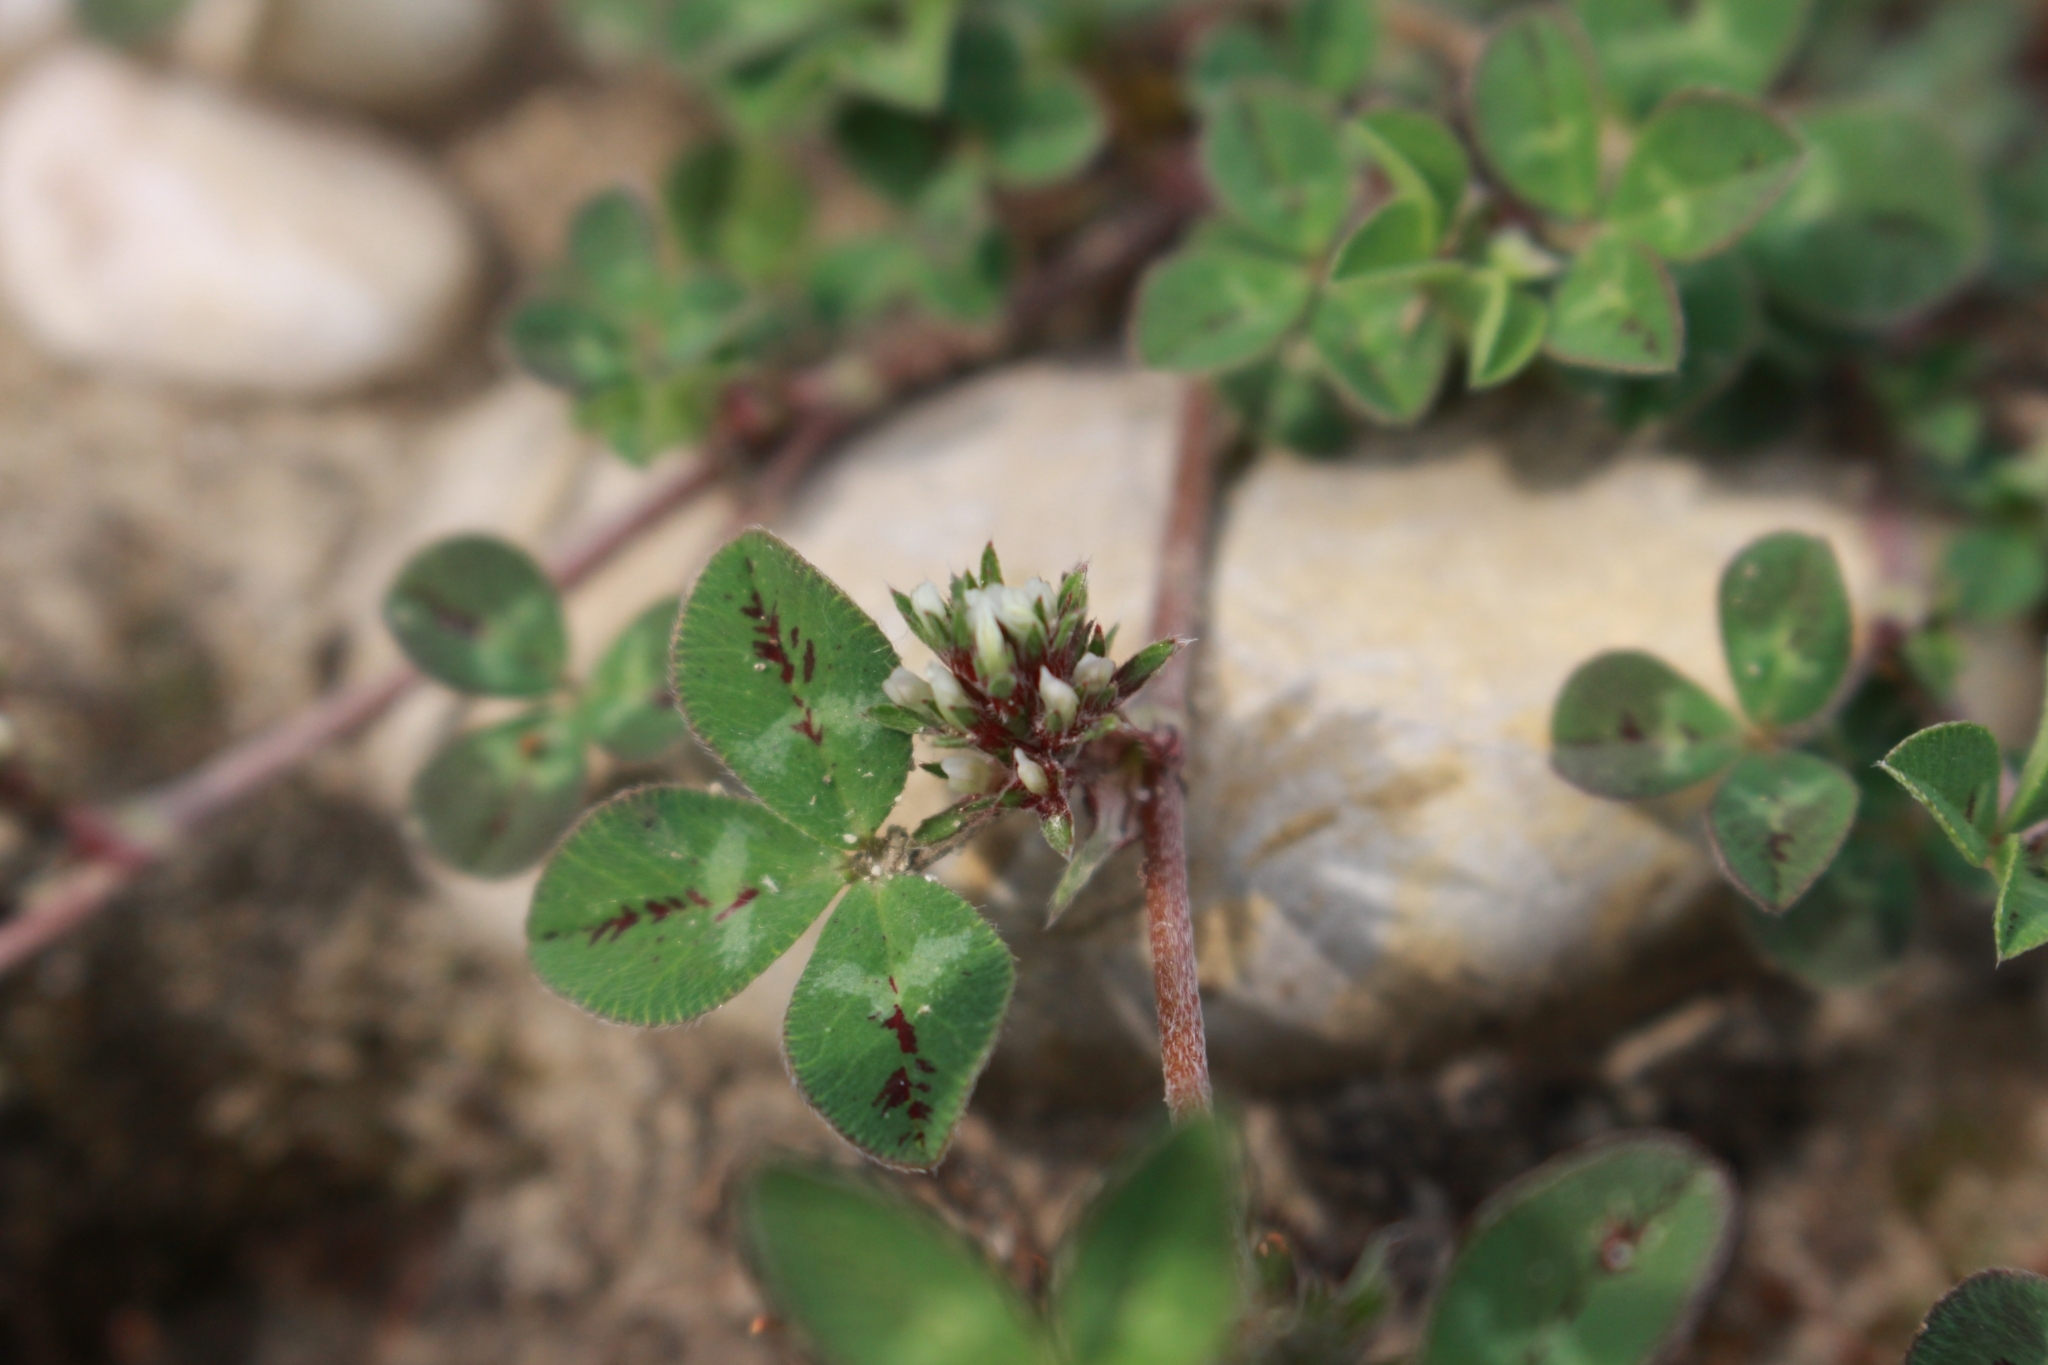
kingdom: Plantae
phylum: Tracheophyta
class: Magnoliopsida
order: Fabales
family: Fabaceae
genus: Trifolium
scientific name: Trifolium scabrum
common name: Rough clover
